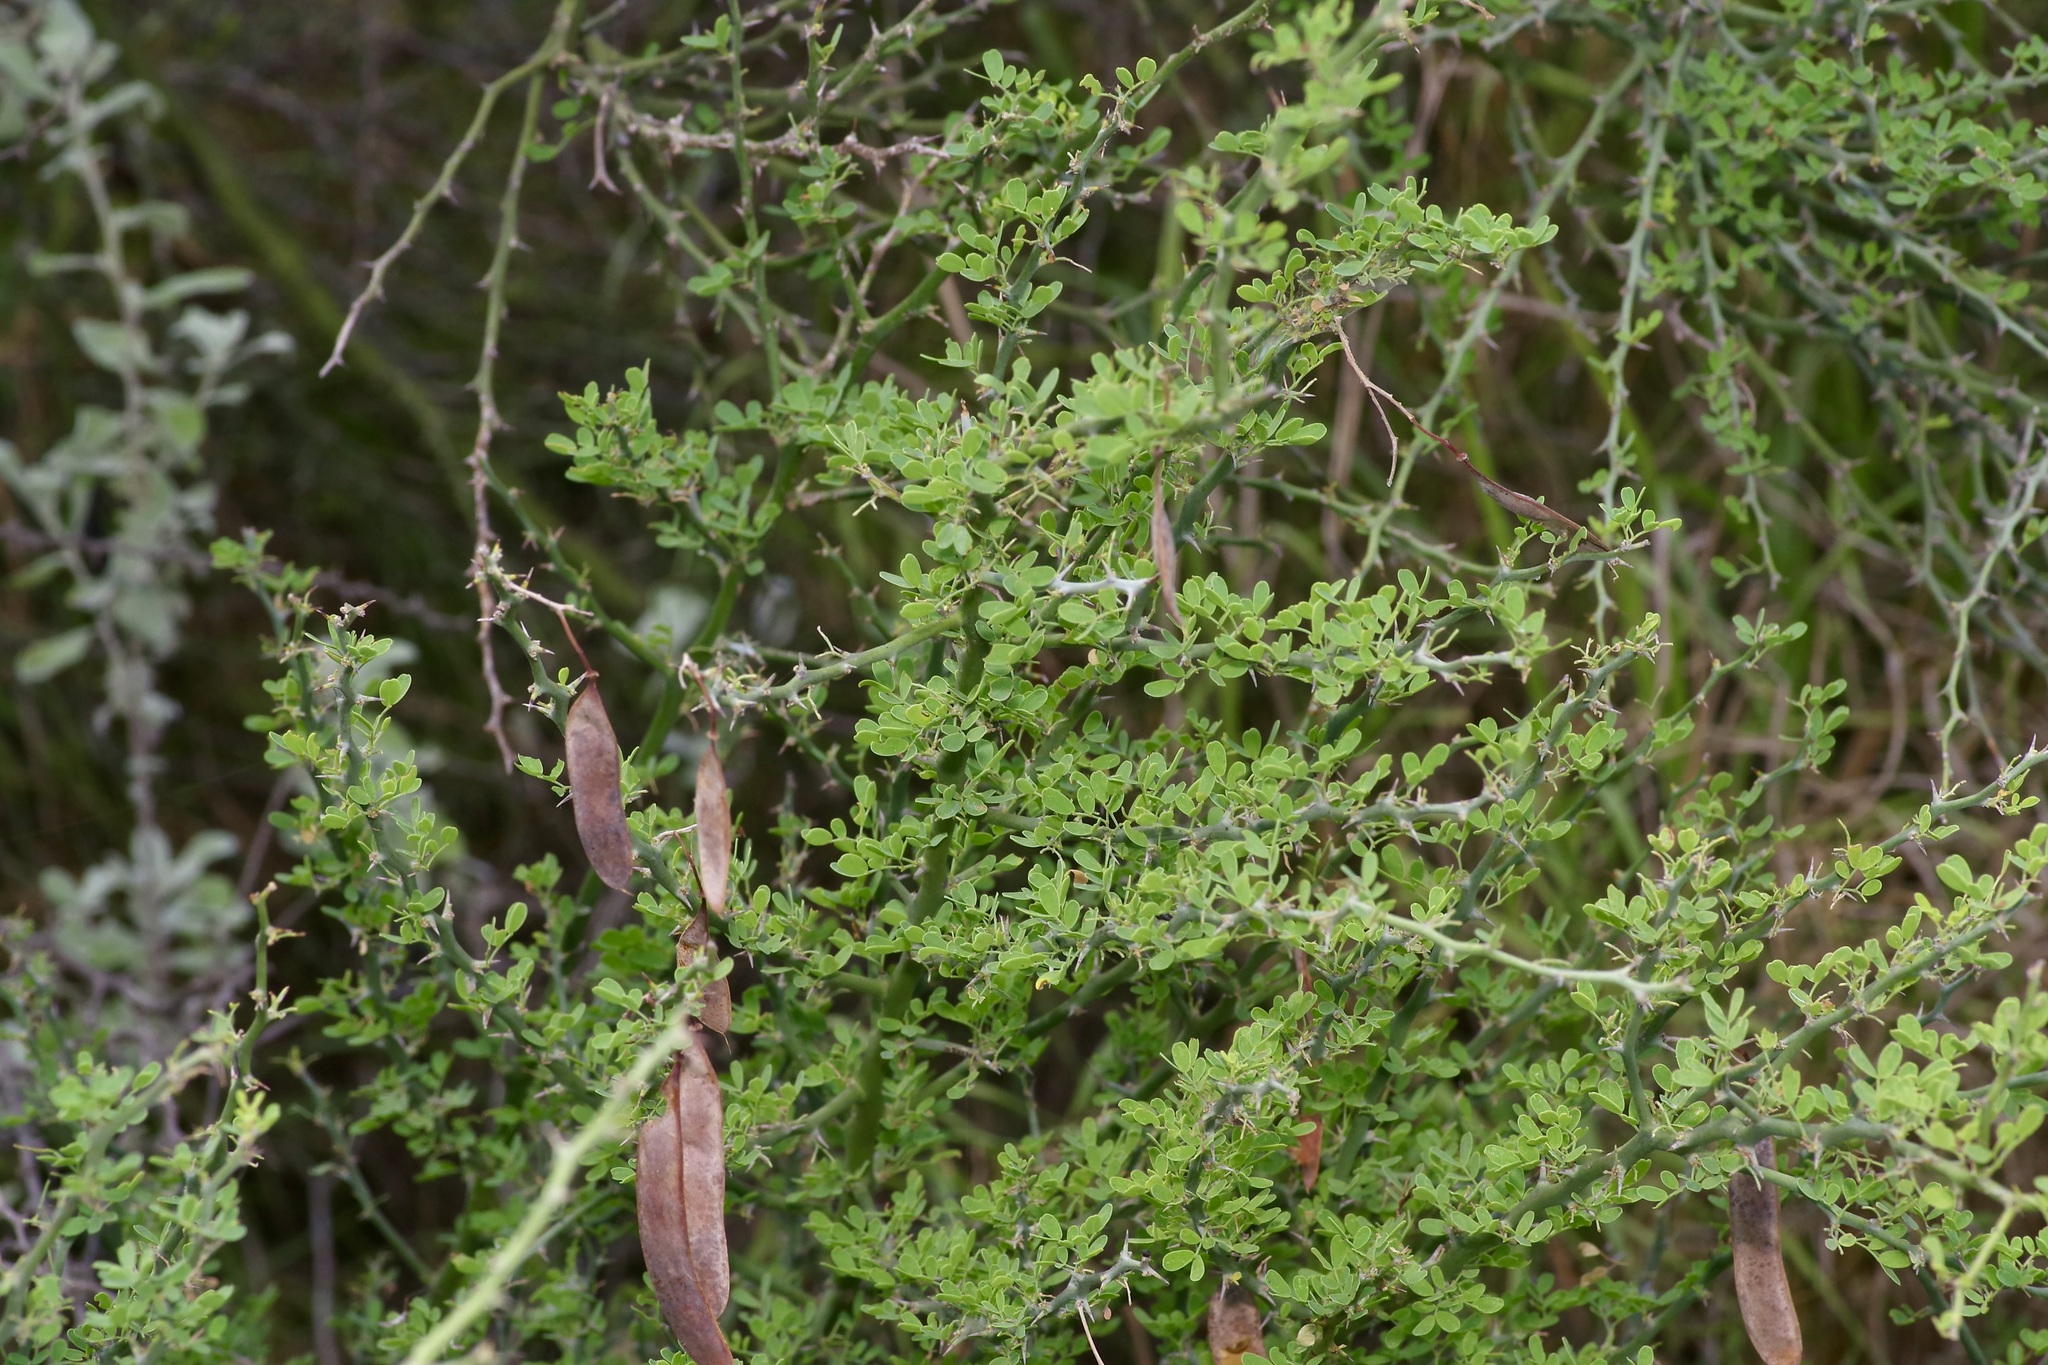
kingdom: Plantae
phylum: Tracheophyta
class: Magnoliopsida
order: Fabales
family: Fabaceae
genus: Parkinsonia
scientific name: Parkinsonia texana
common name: Texas paloverde
